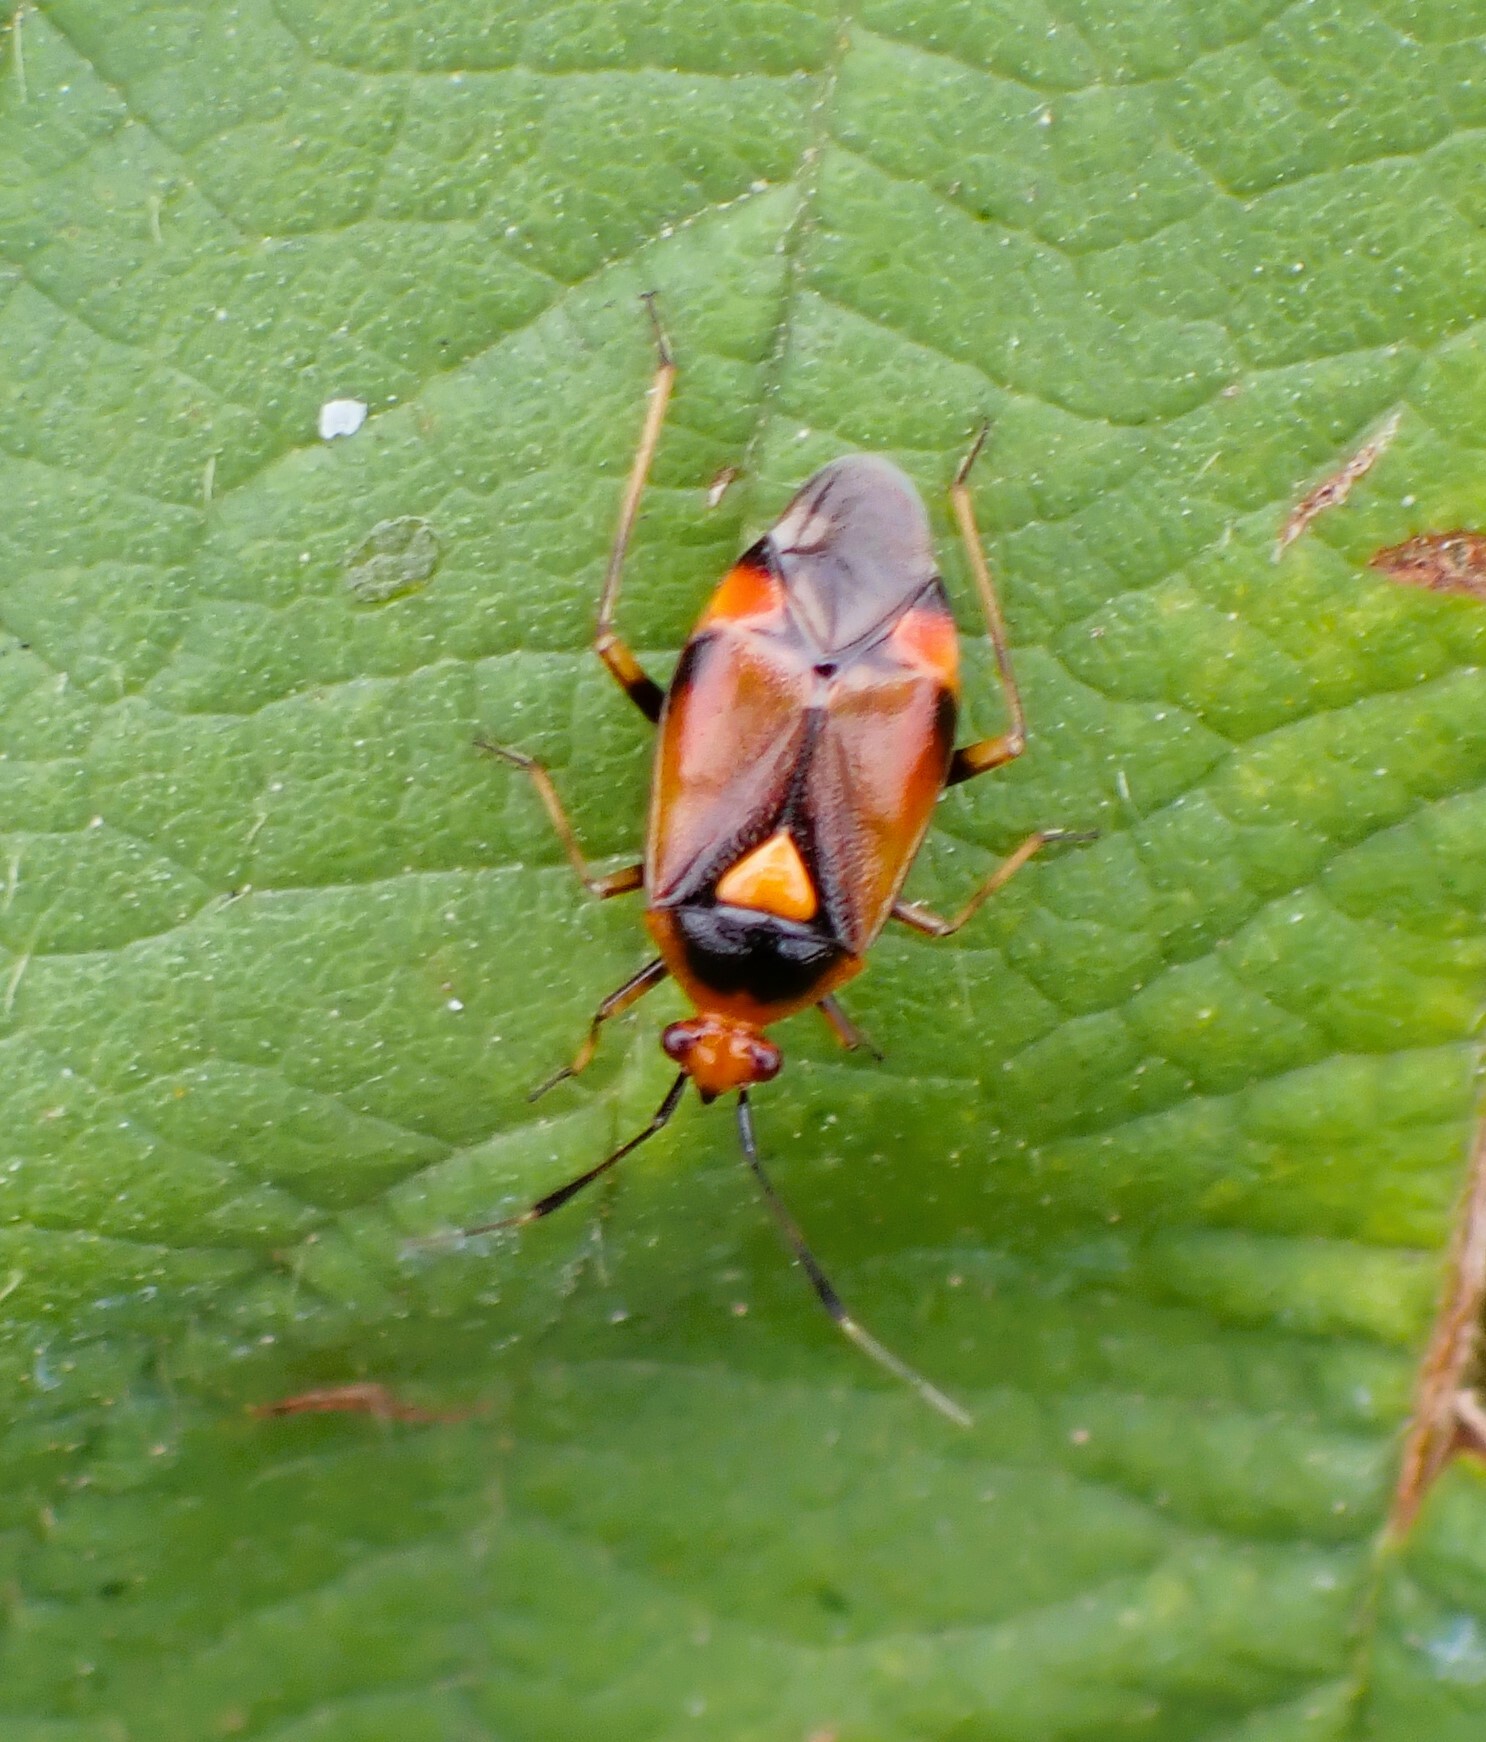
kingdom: Animalia
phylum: Arthropoda
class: Insecta
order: Hemiptera
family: Miridae
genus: Deraeocoris
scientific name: Deraeocoris ruber
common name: Plant bug
